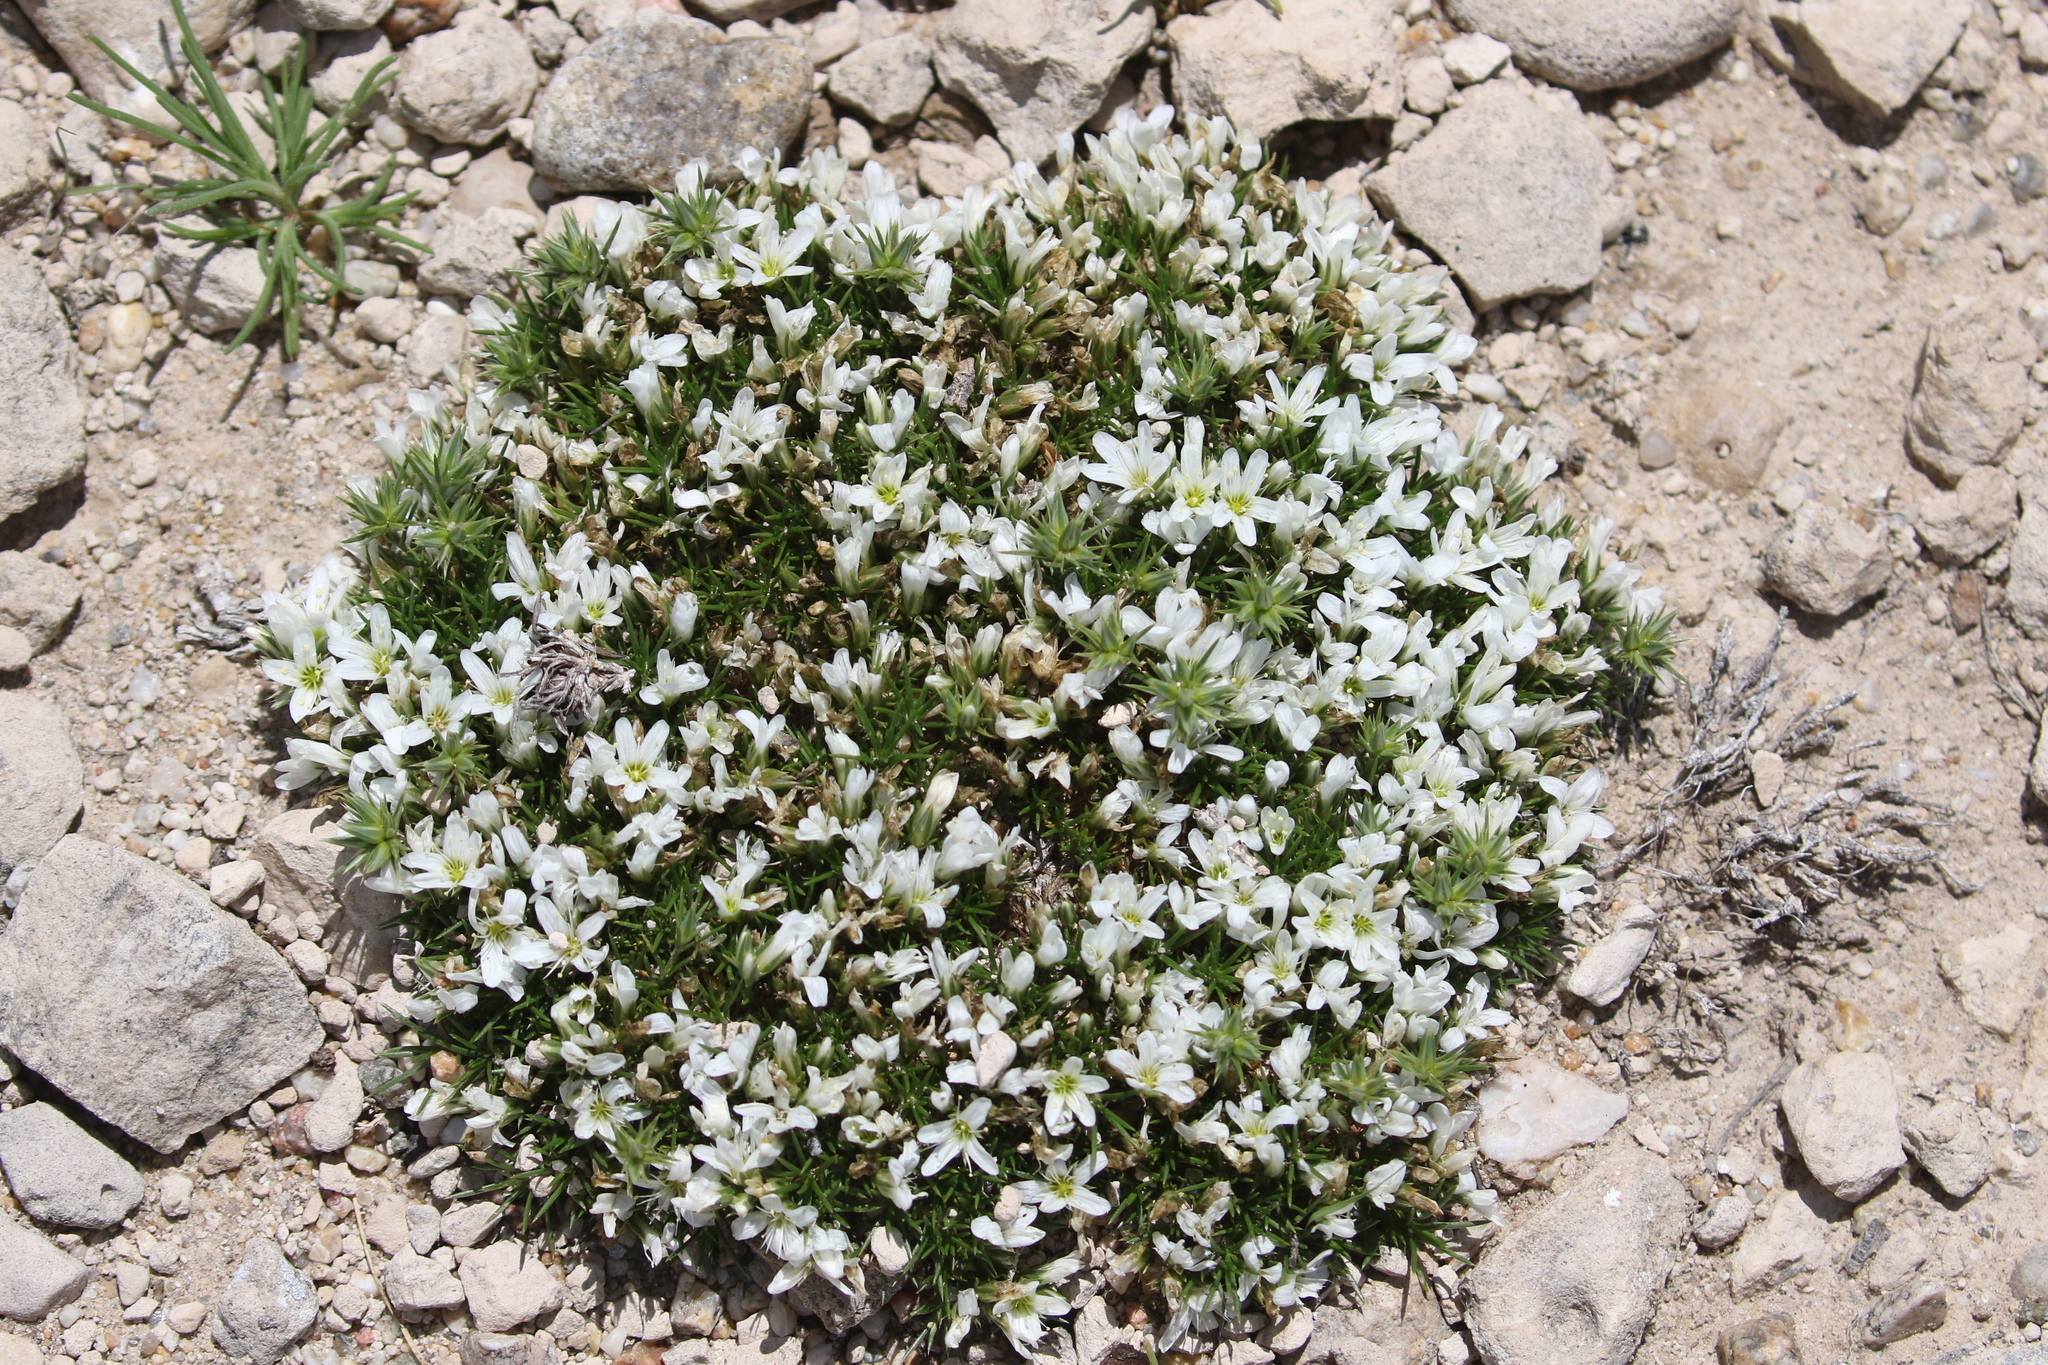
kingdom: Plantae
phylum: Tracheophyta
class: Magnoliopsida
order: Caryophyllales
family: Caryophyllaceae
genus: Eremogone
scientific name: Eremogone hookeri
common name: Hooker's sandwort
